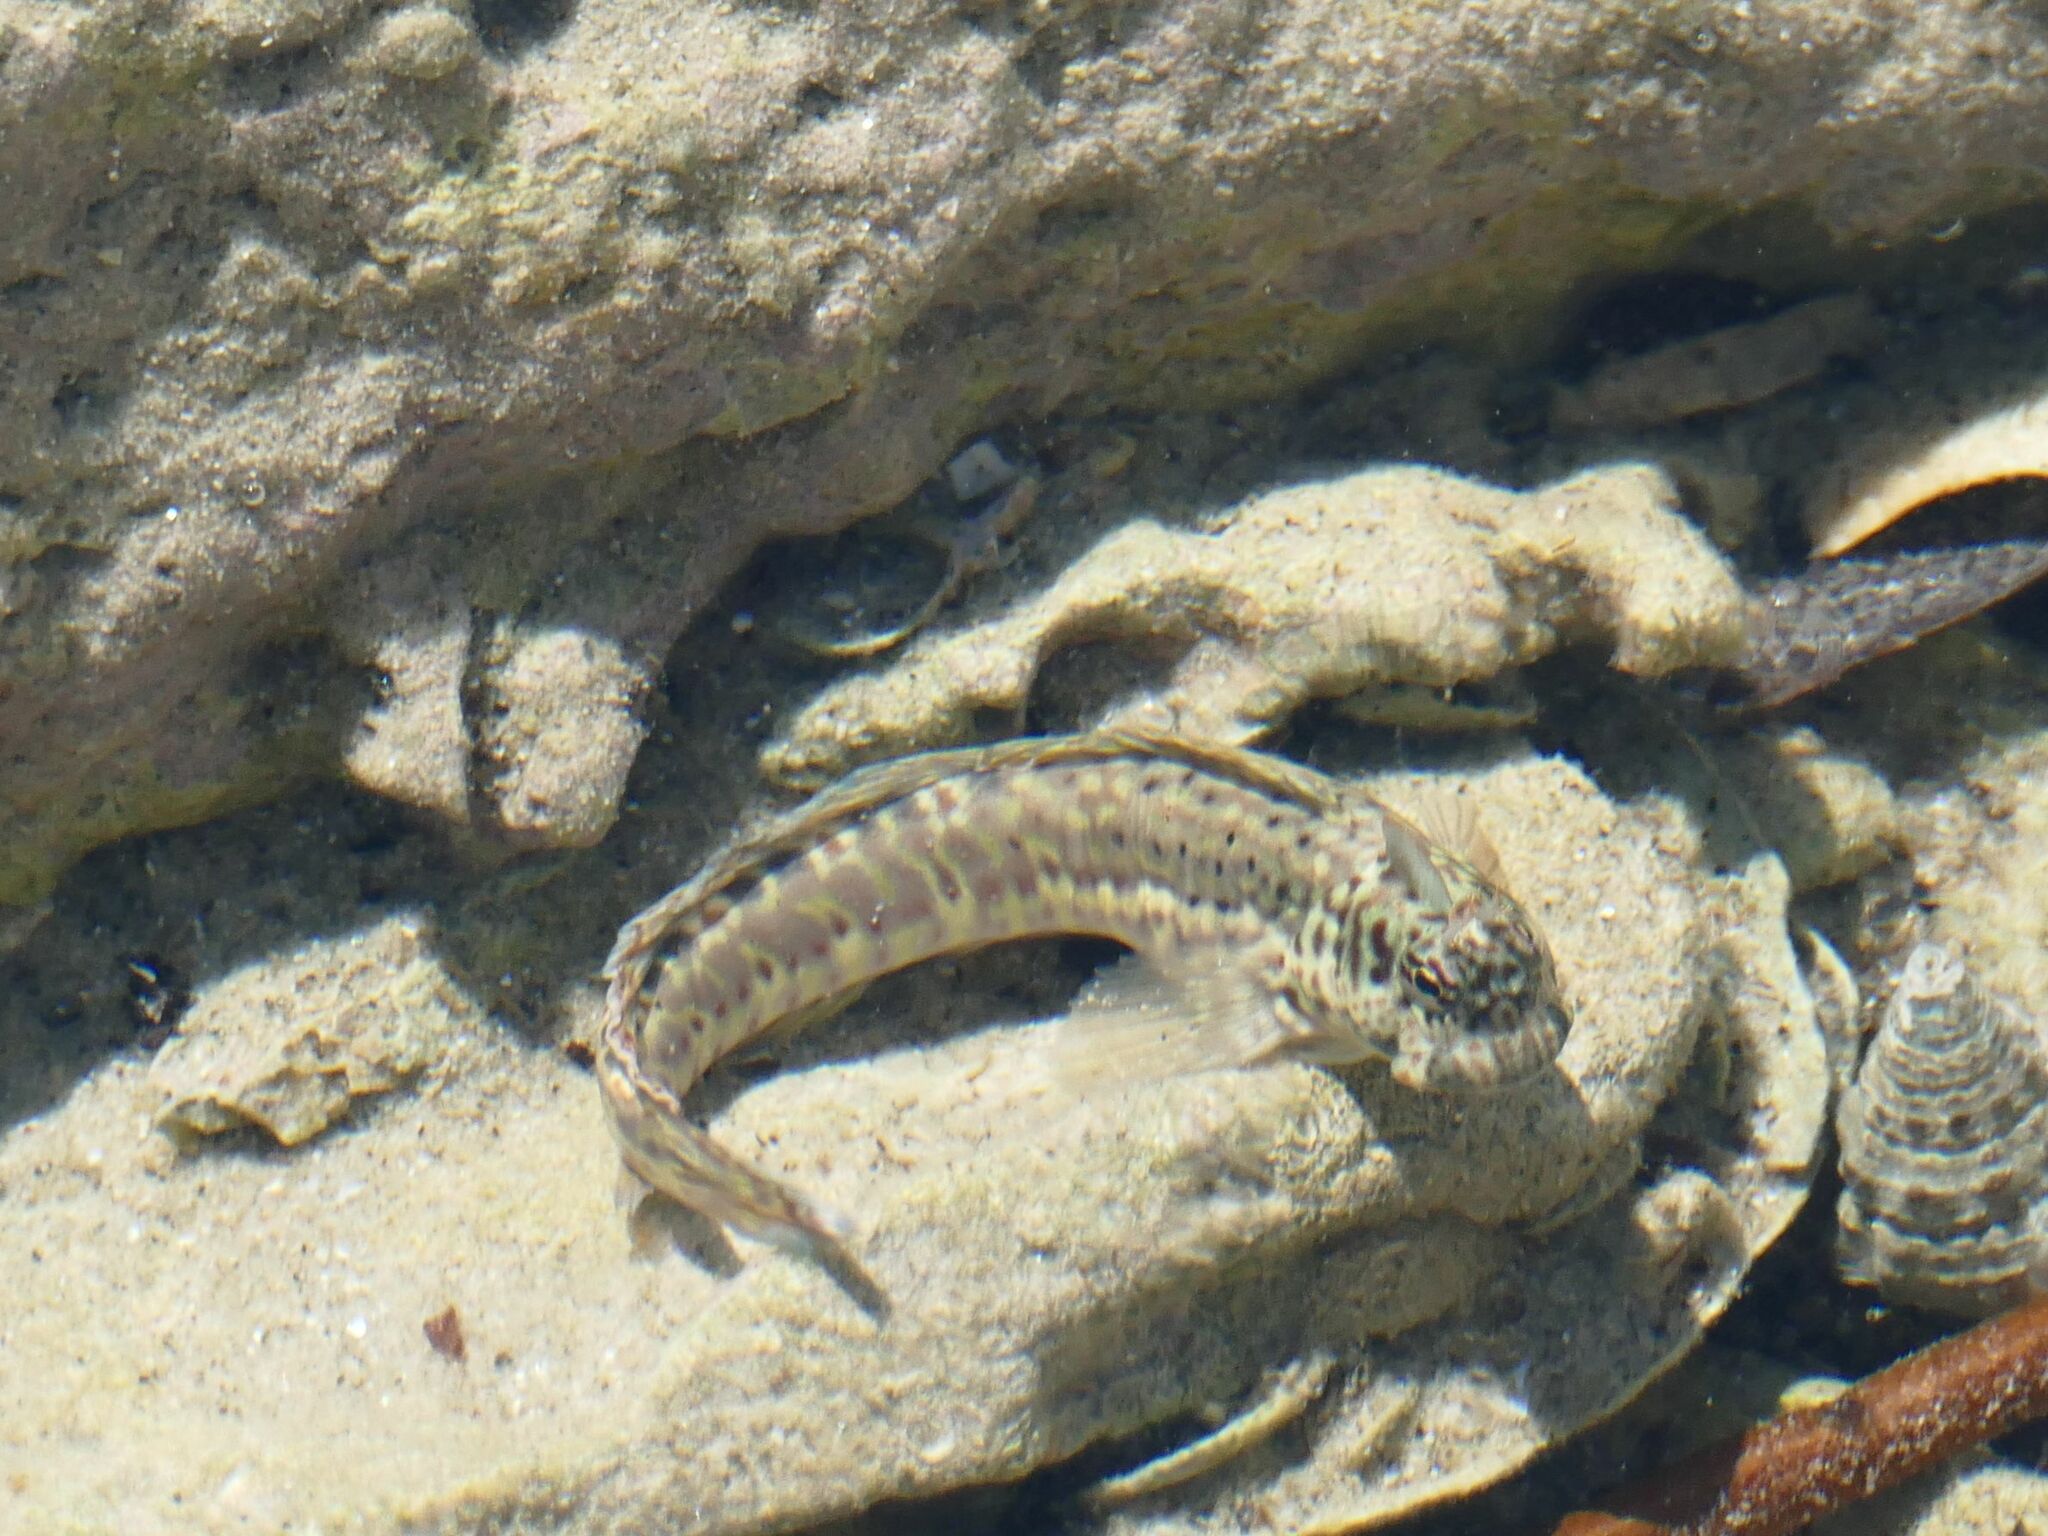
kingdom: Animalia
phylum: Chordata
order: Perciformes
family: Blenniidae
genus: Istiblennius
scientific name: Istiblennius dussumieri
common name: Dussumier's rockskipper
